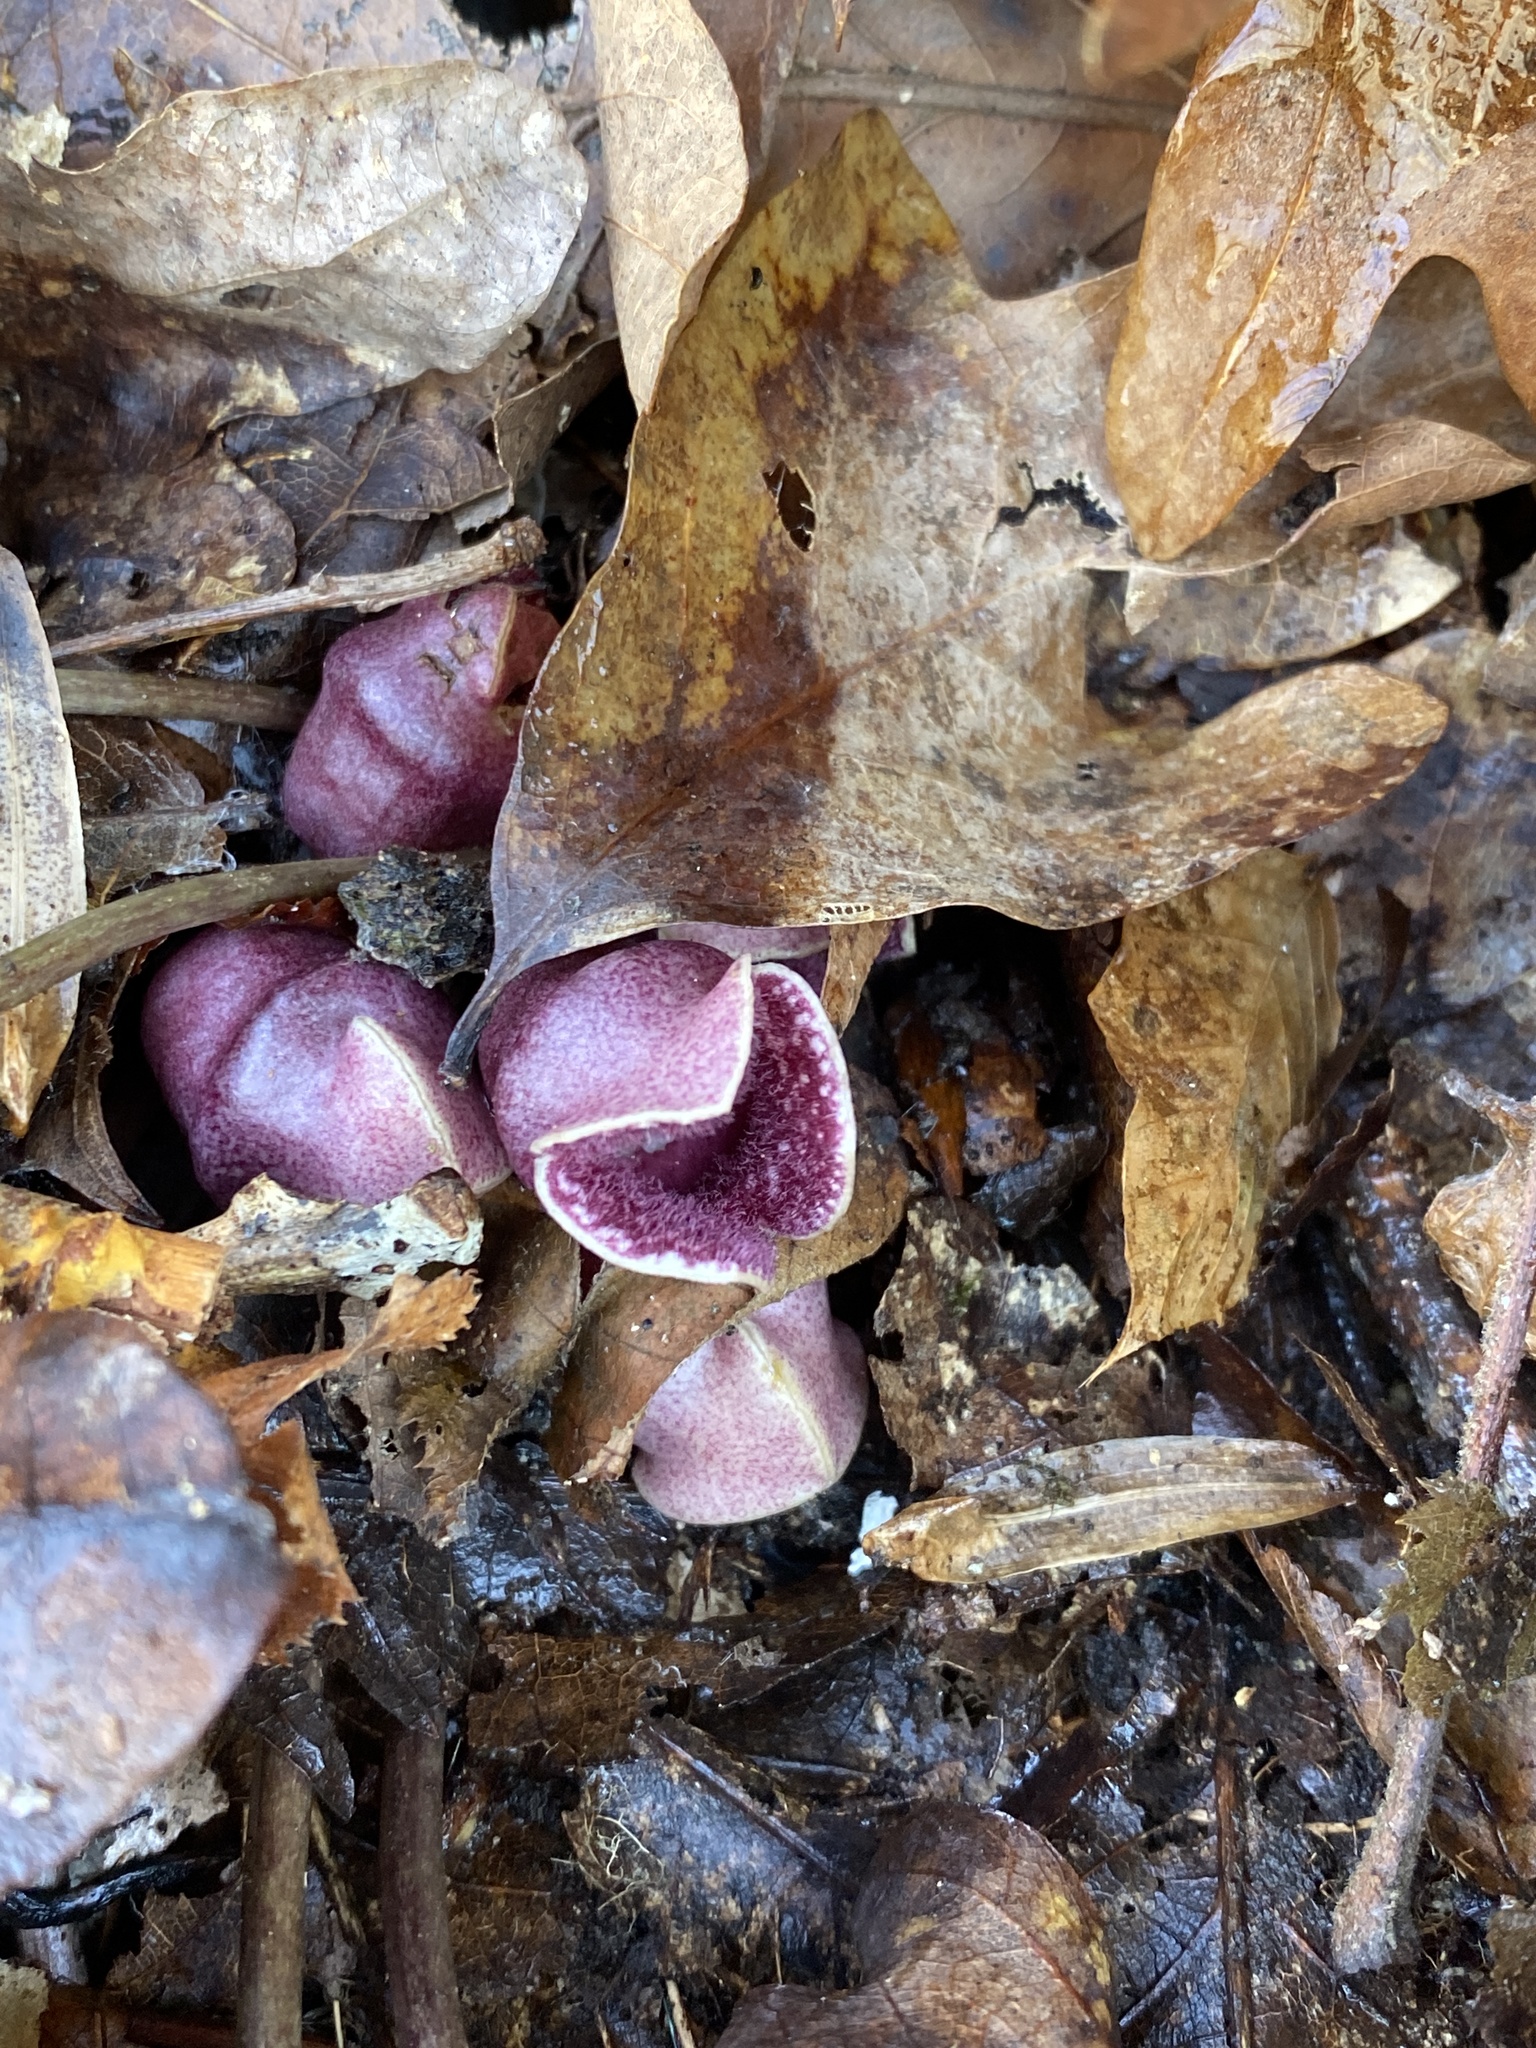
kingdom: Plantae
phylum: Tracheophyta
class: Magnoliopsida
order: Piperales
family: Aristolochiaceae
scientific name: Aristolochiaceae
